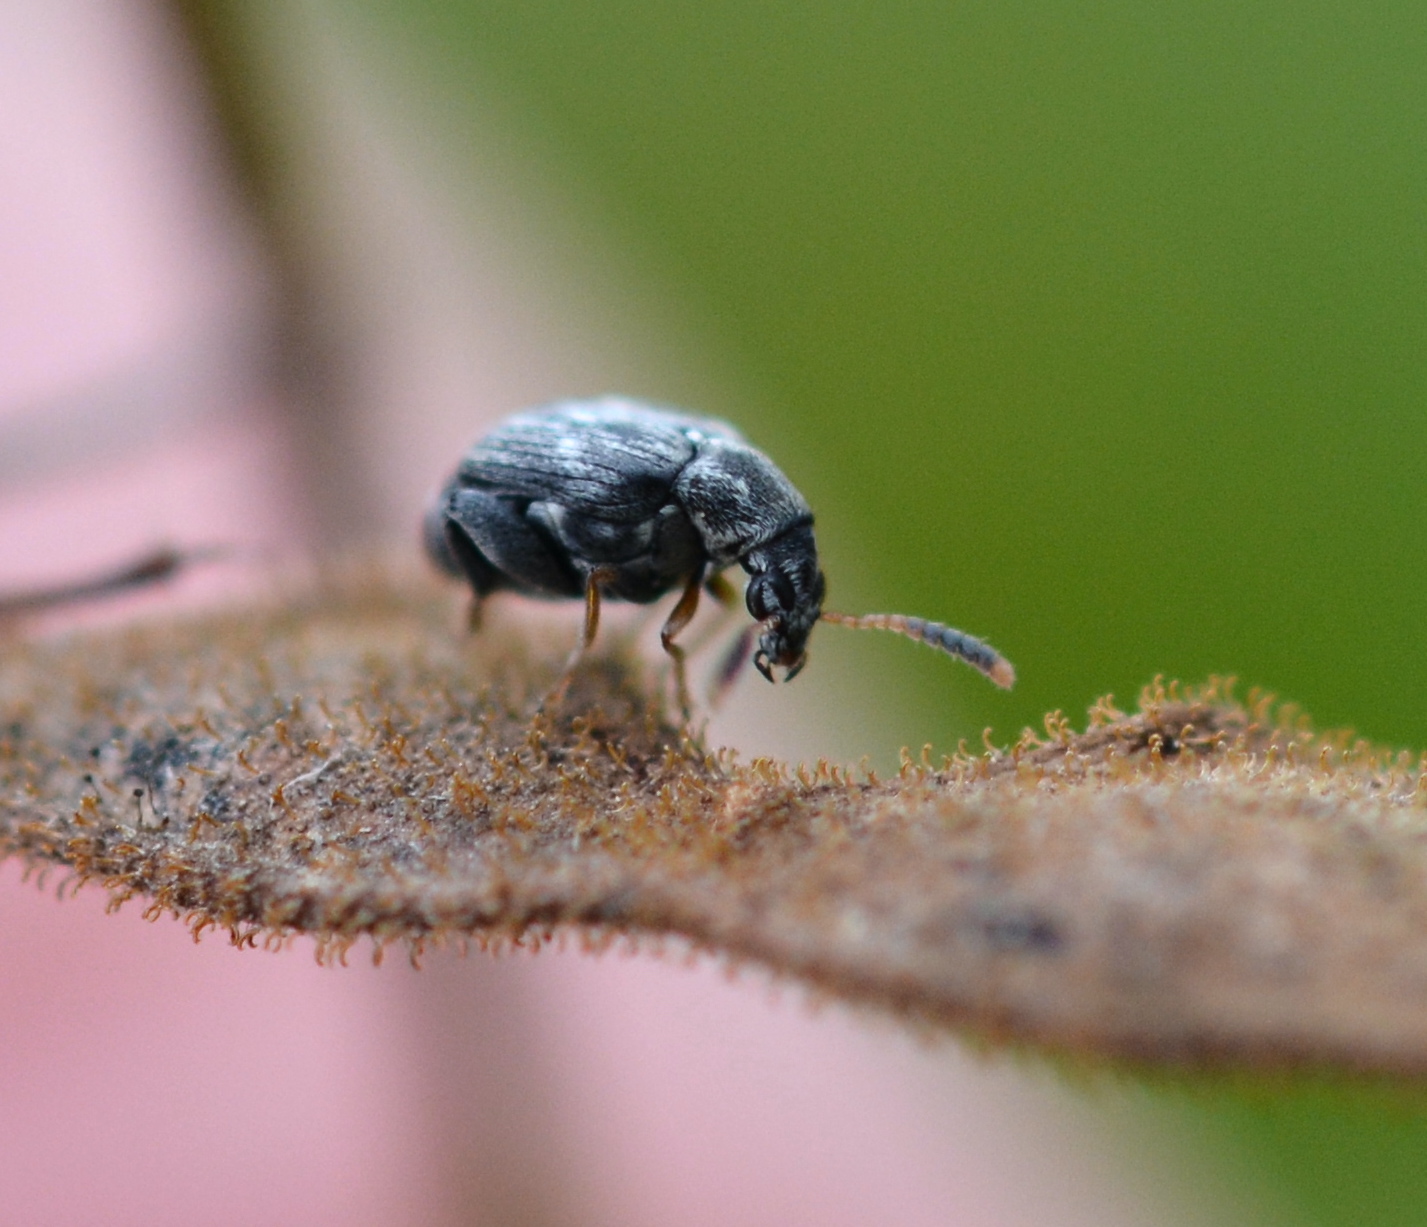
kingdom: Animalia
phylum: Arthropoda
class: Insecta
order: Coleoptera
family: Chrysomelidae
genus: Meibomeus
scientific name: Meibomeus musculus
